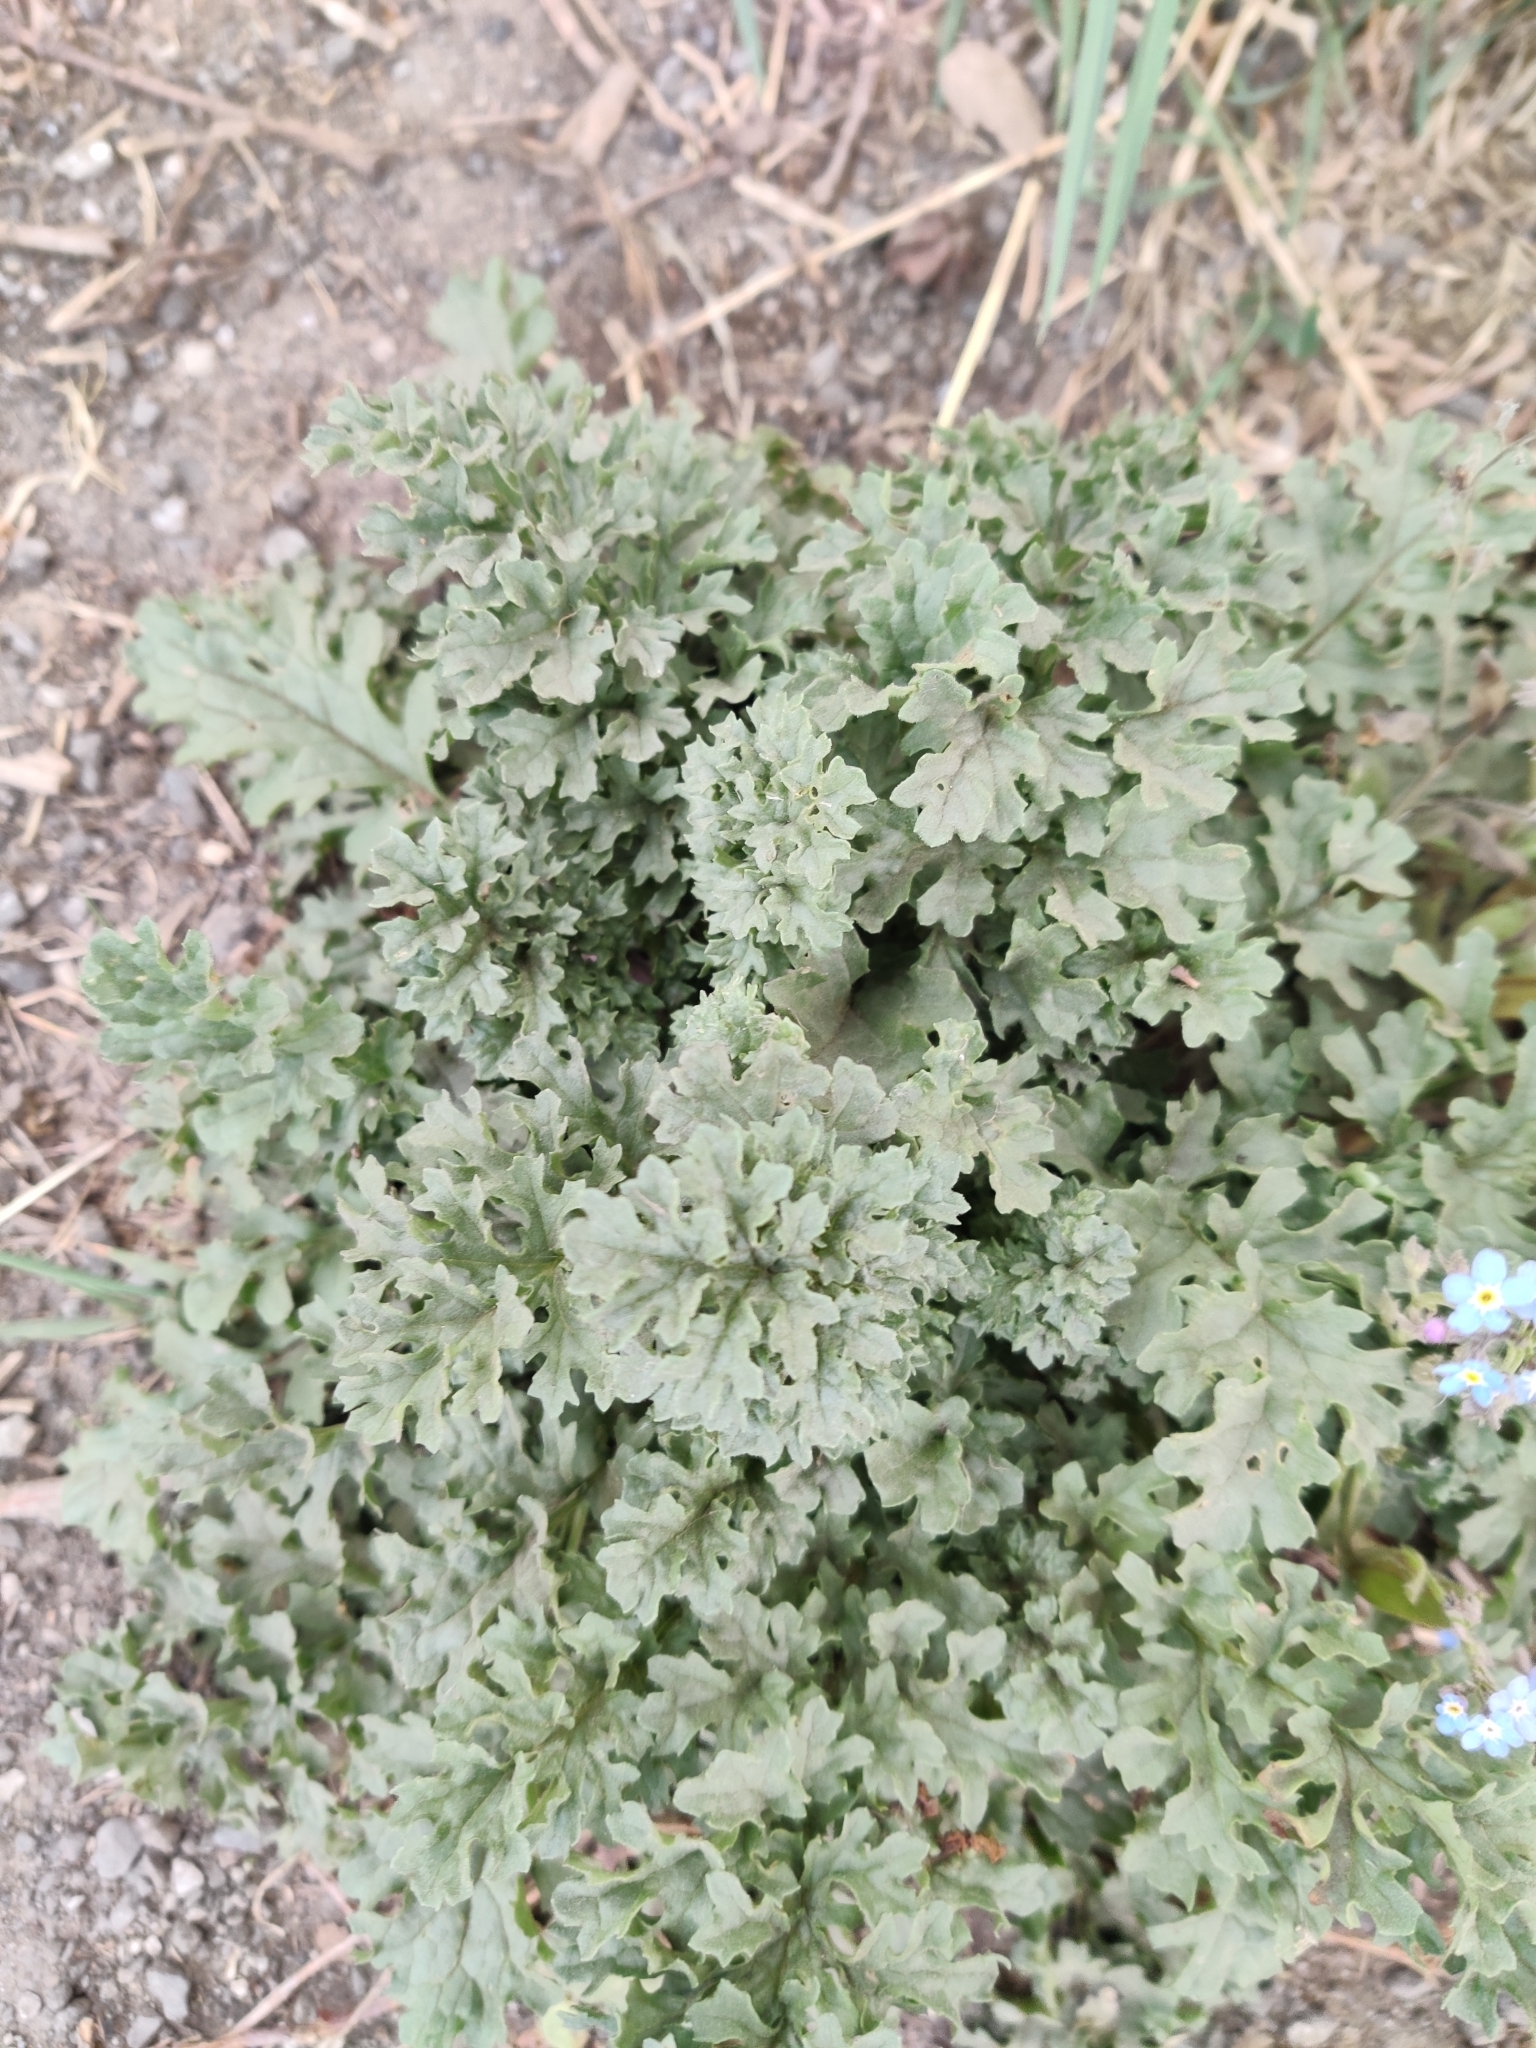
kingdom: Plantae
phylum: Tracheophyta
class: Magnoliopsida
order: Asterales
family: Asteraceae
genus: Jacobaea
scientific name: Jacobaea vulgaris
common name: Stinking willie
